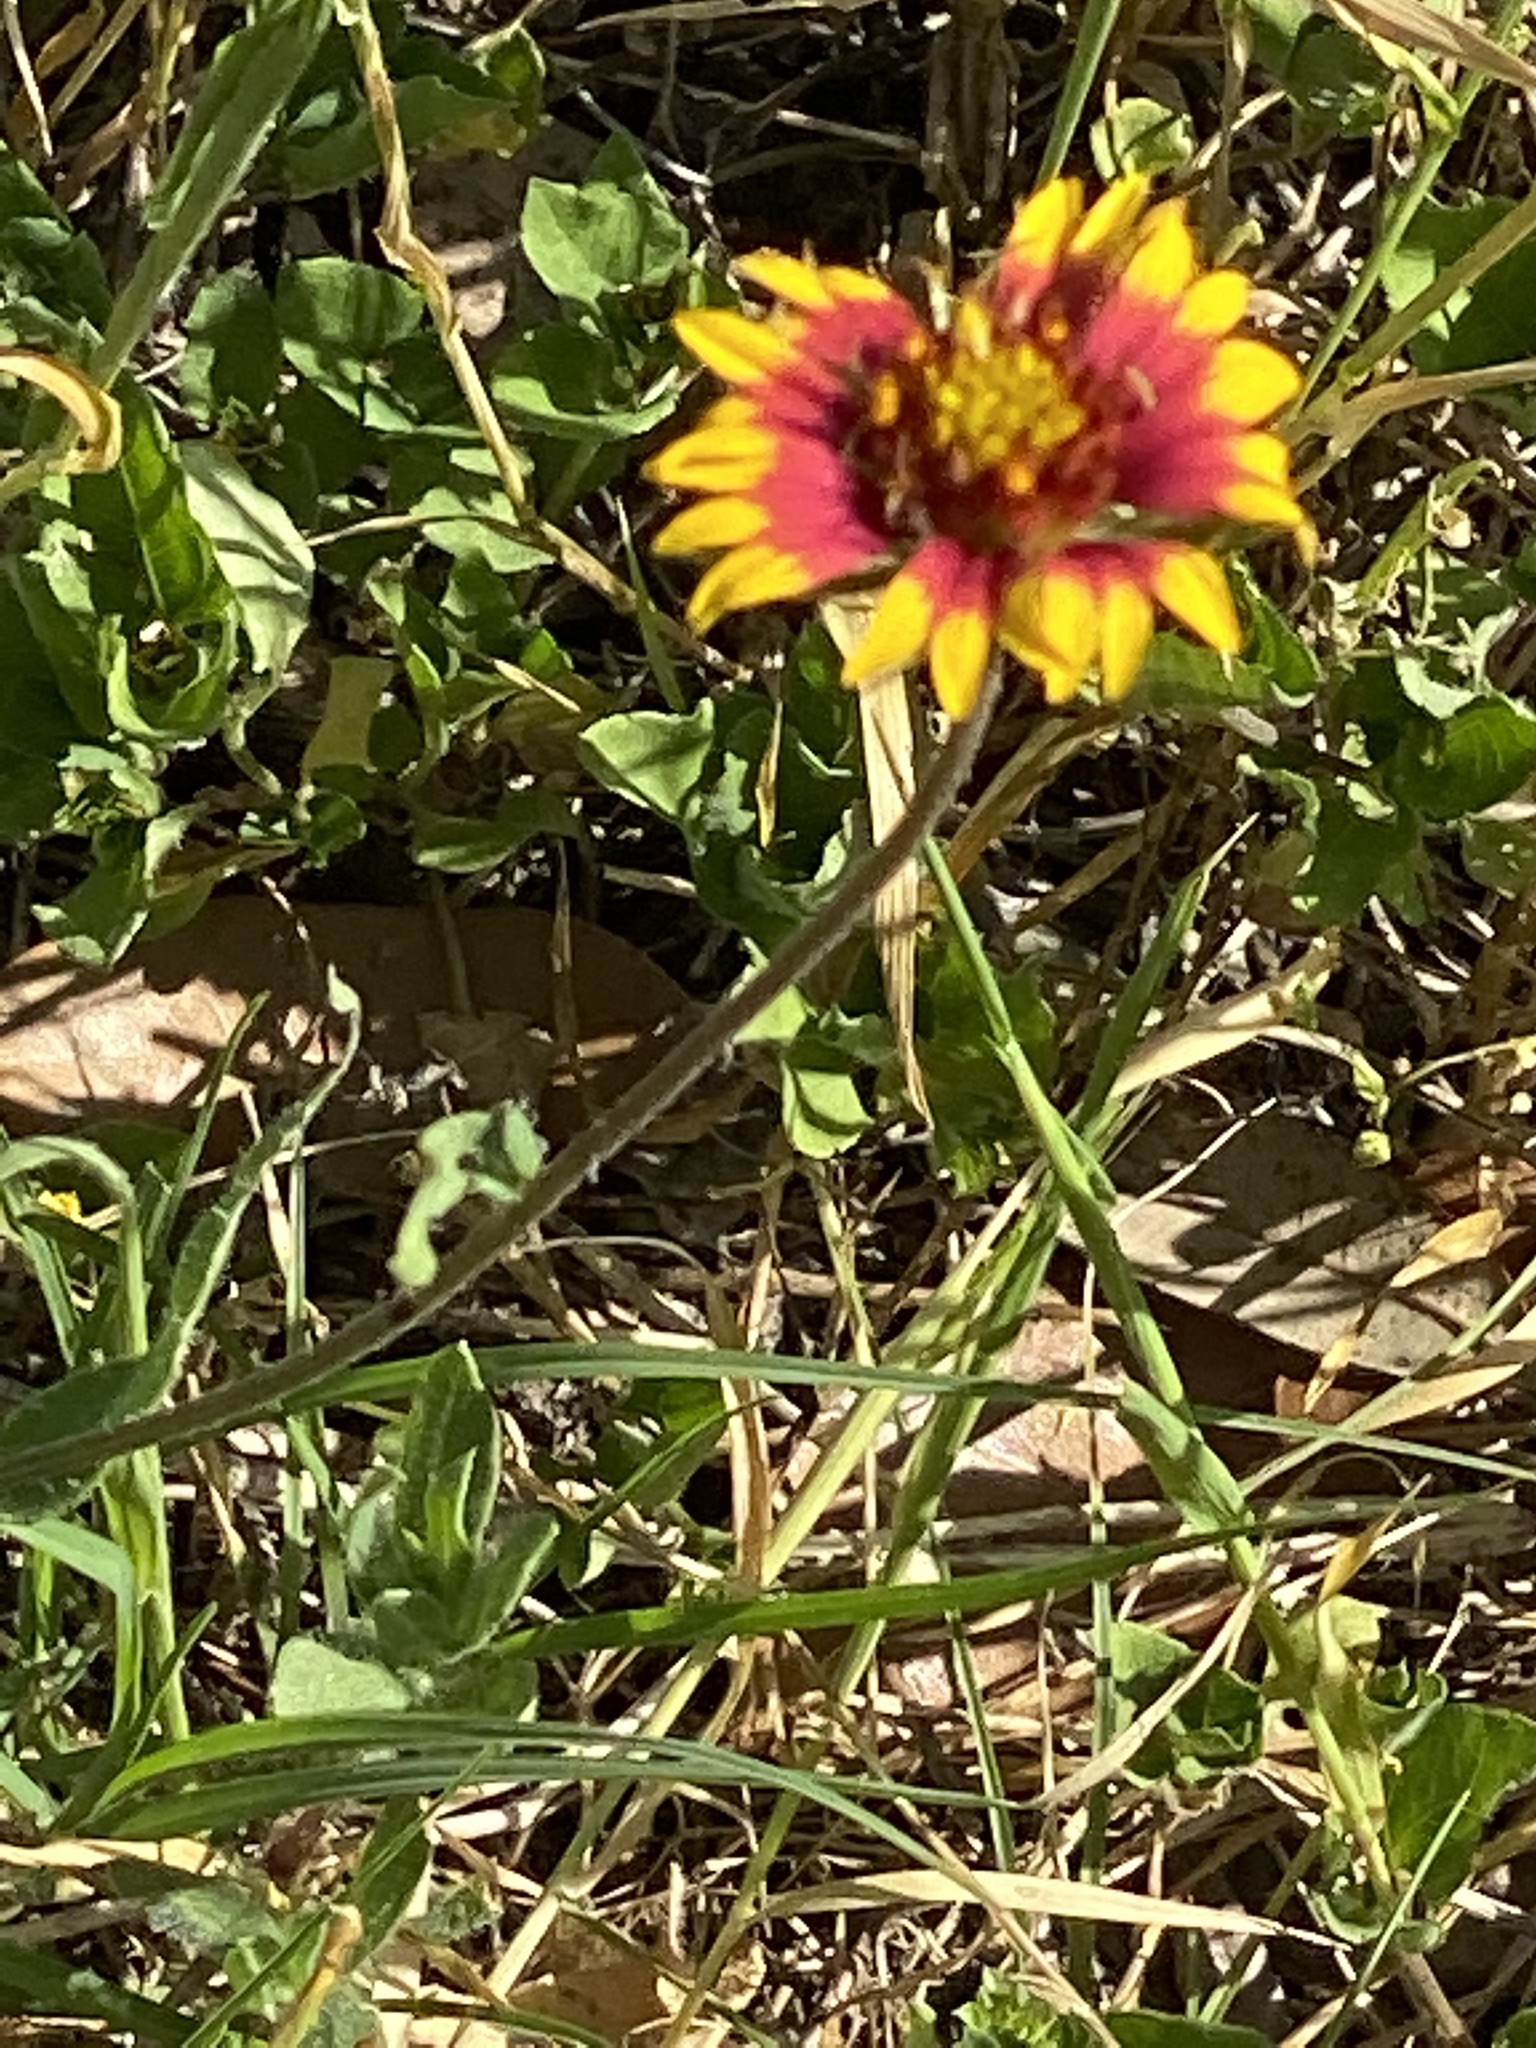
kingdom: Plantae
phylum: Tracheophyta
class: Magnoliopsida
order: Asterales
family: Asteraceae
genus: Gaillardia
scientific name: Gaillardia pulchella
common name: Firewheel
